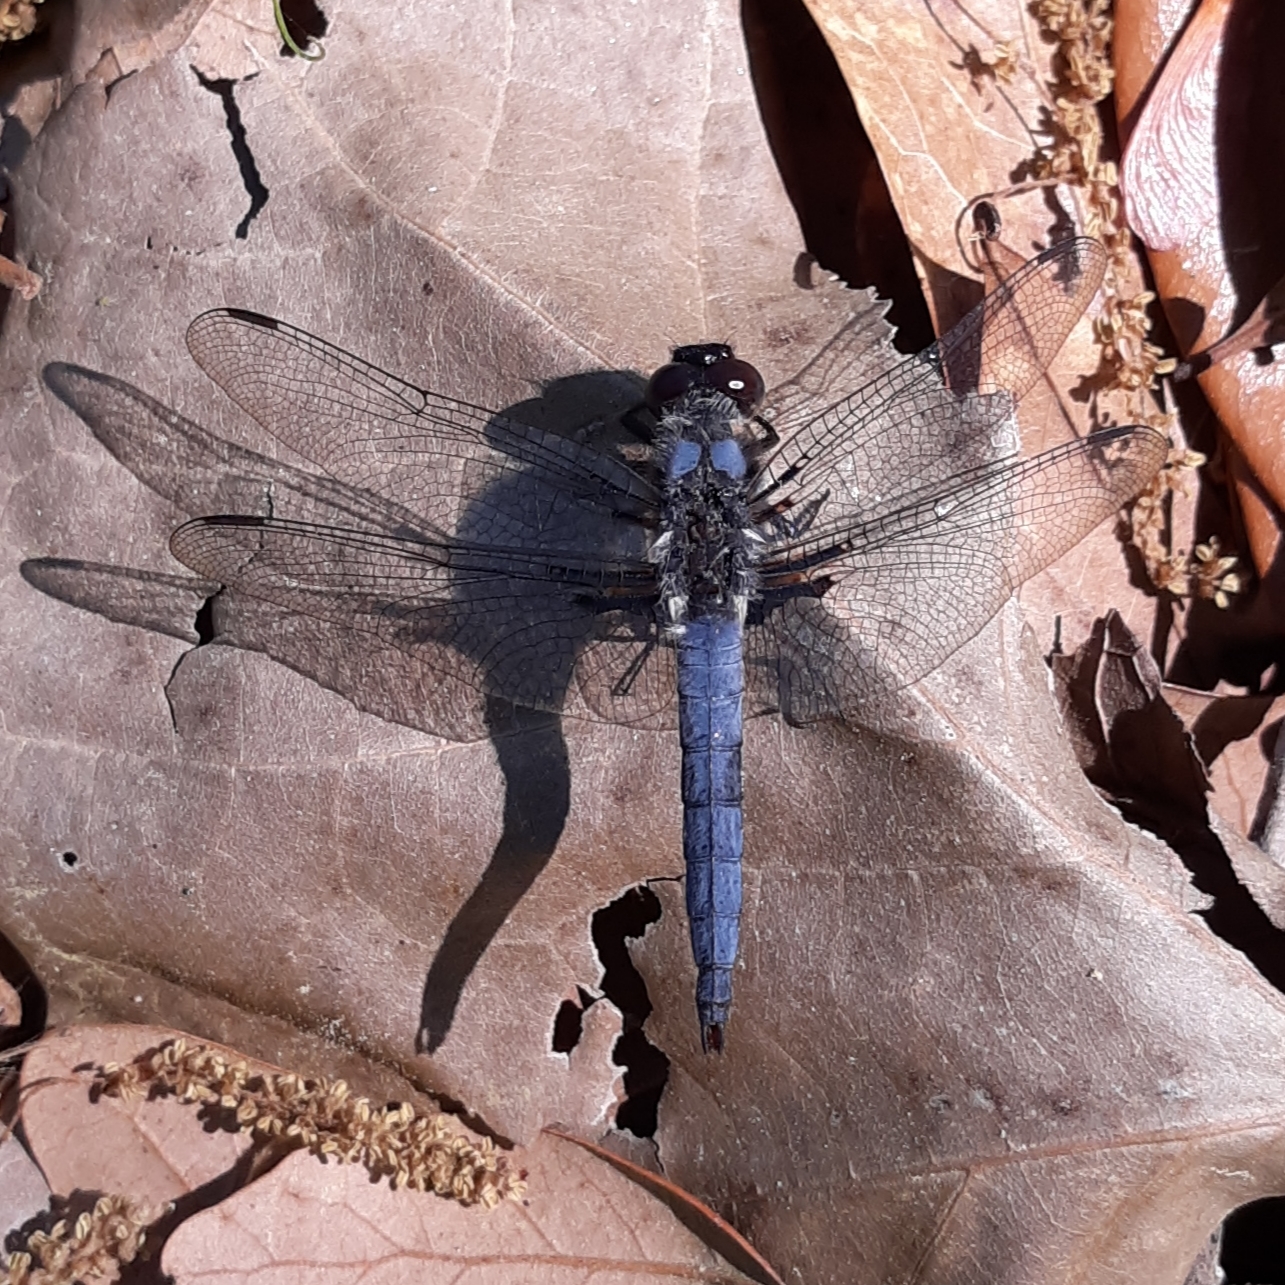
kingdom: Animalia
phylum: Arthropoda
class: Insecta
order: Odonata
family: Libellulidae
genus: Ladona
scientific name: Ladona deplanata
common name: Blue corporal
